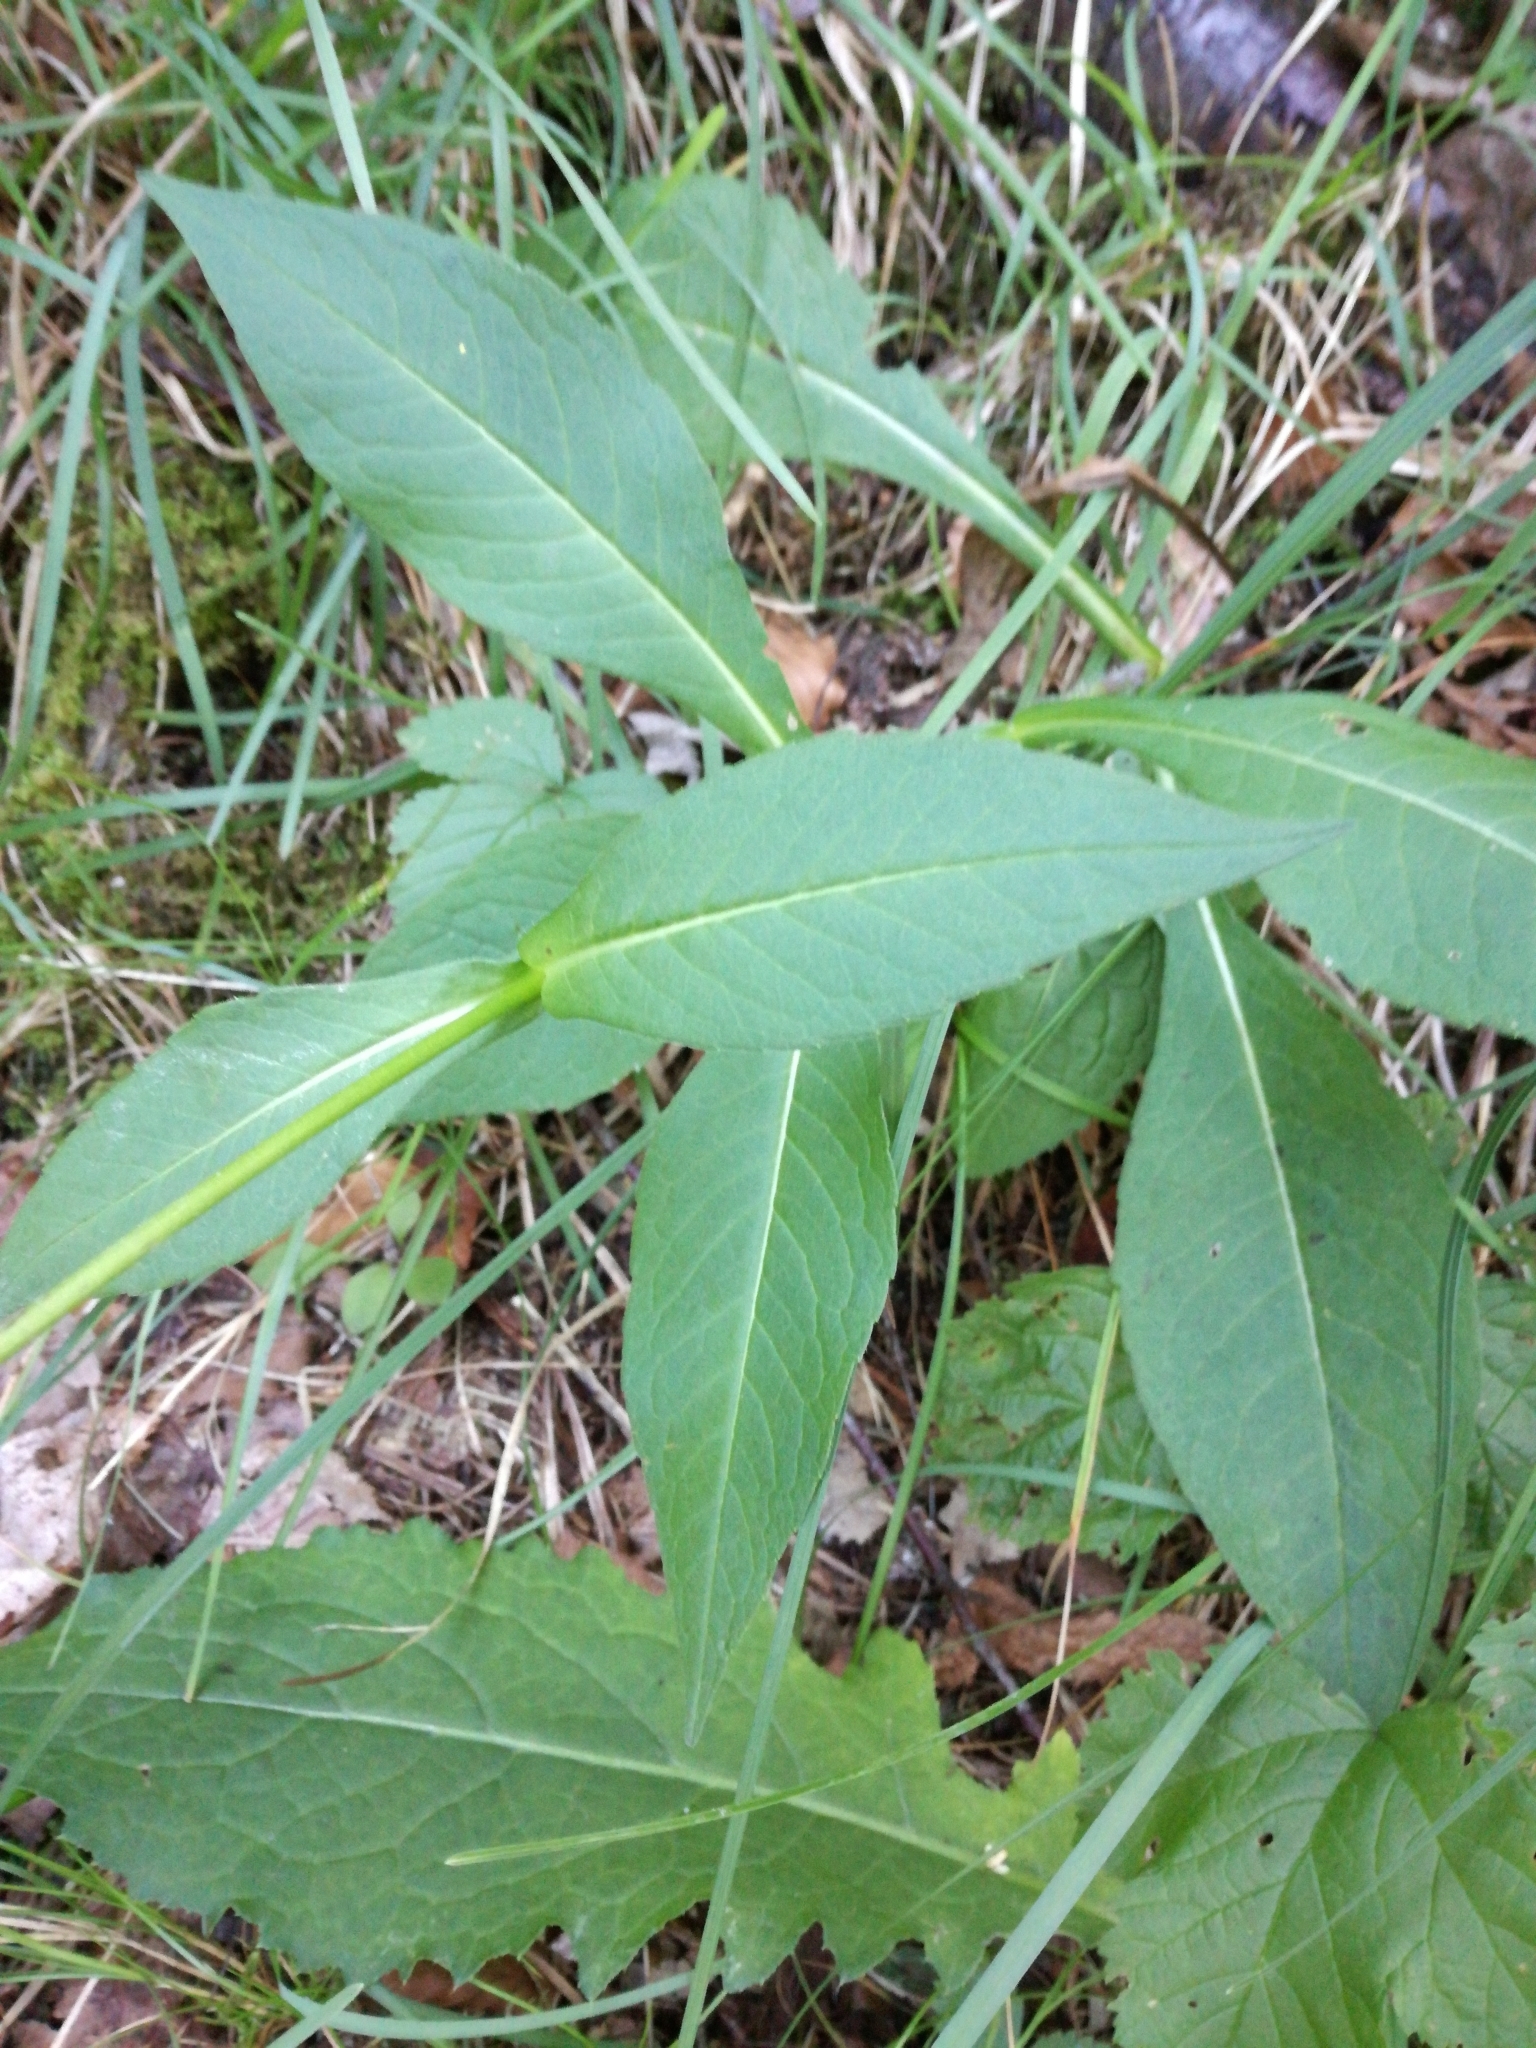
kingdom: Plantae
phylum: Tracheophyta
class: Magnoliopsida
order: Dipsacales
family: Caprifoliaceae
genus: Knautia
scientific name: Knautia arvensis
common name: Field scabiosa
